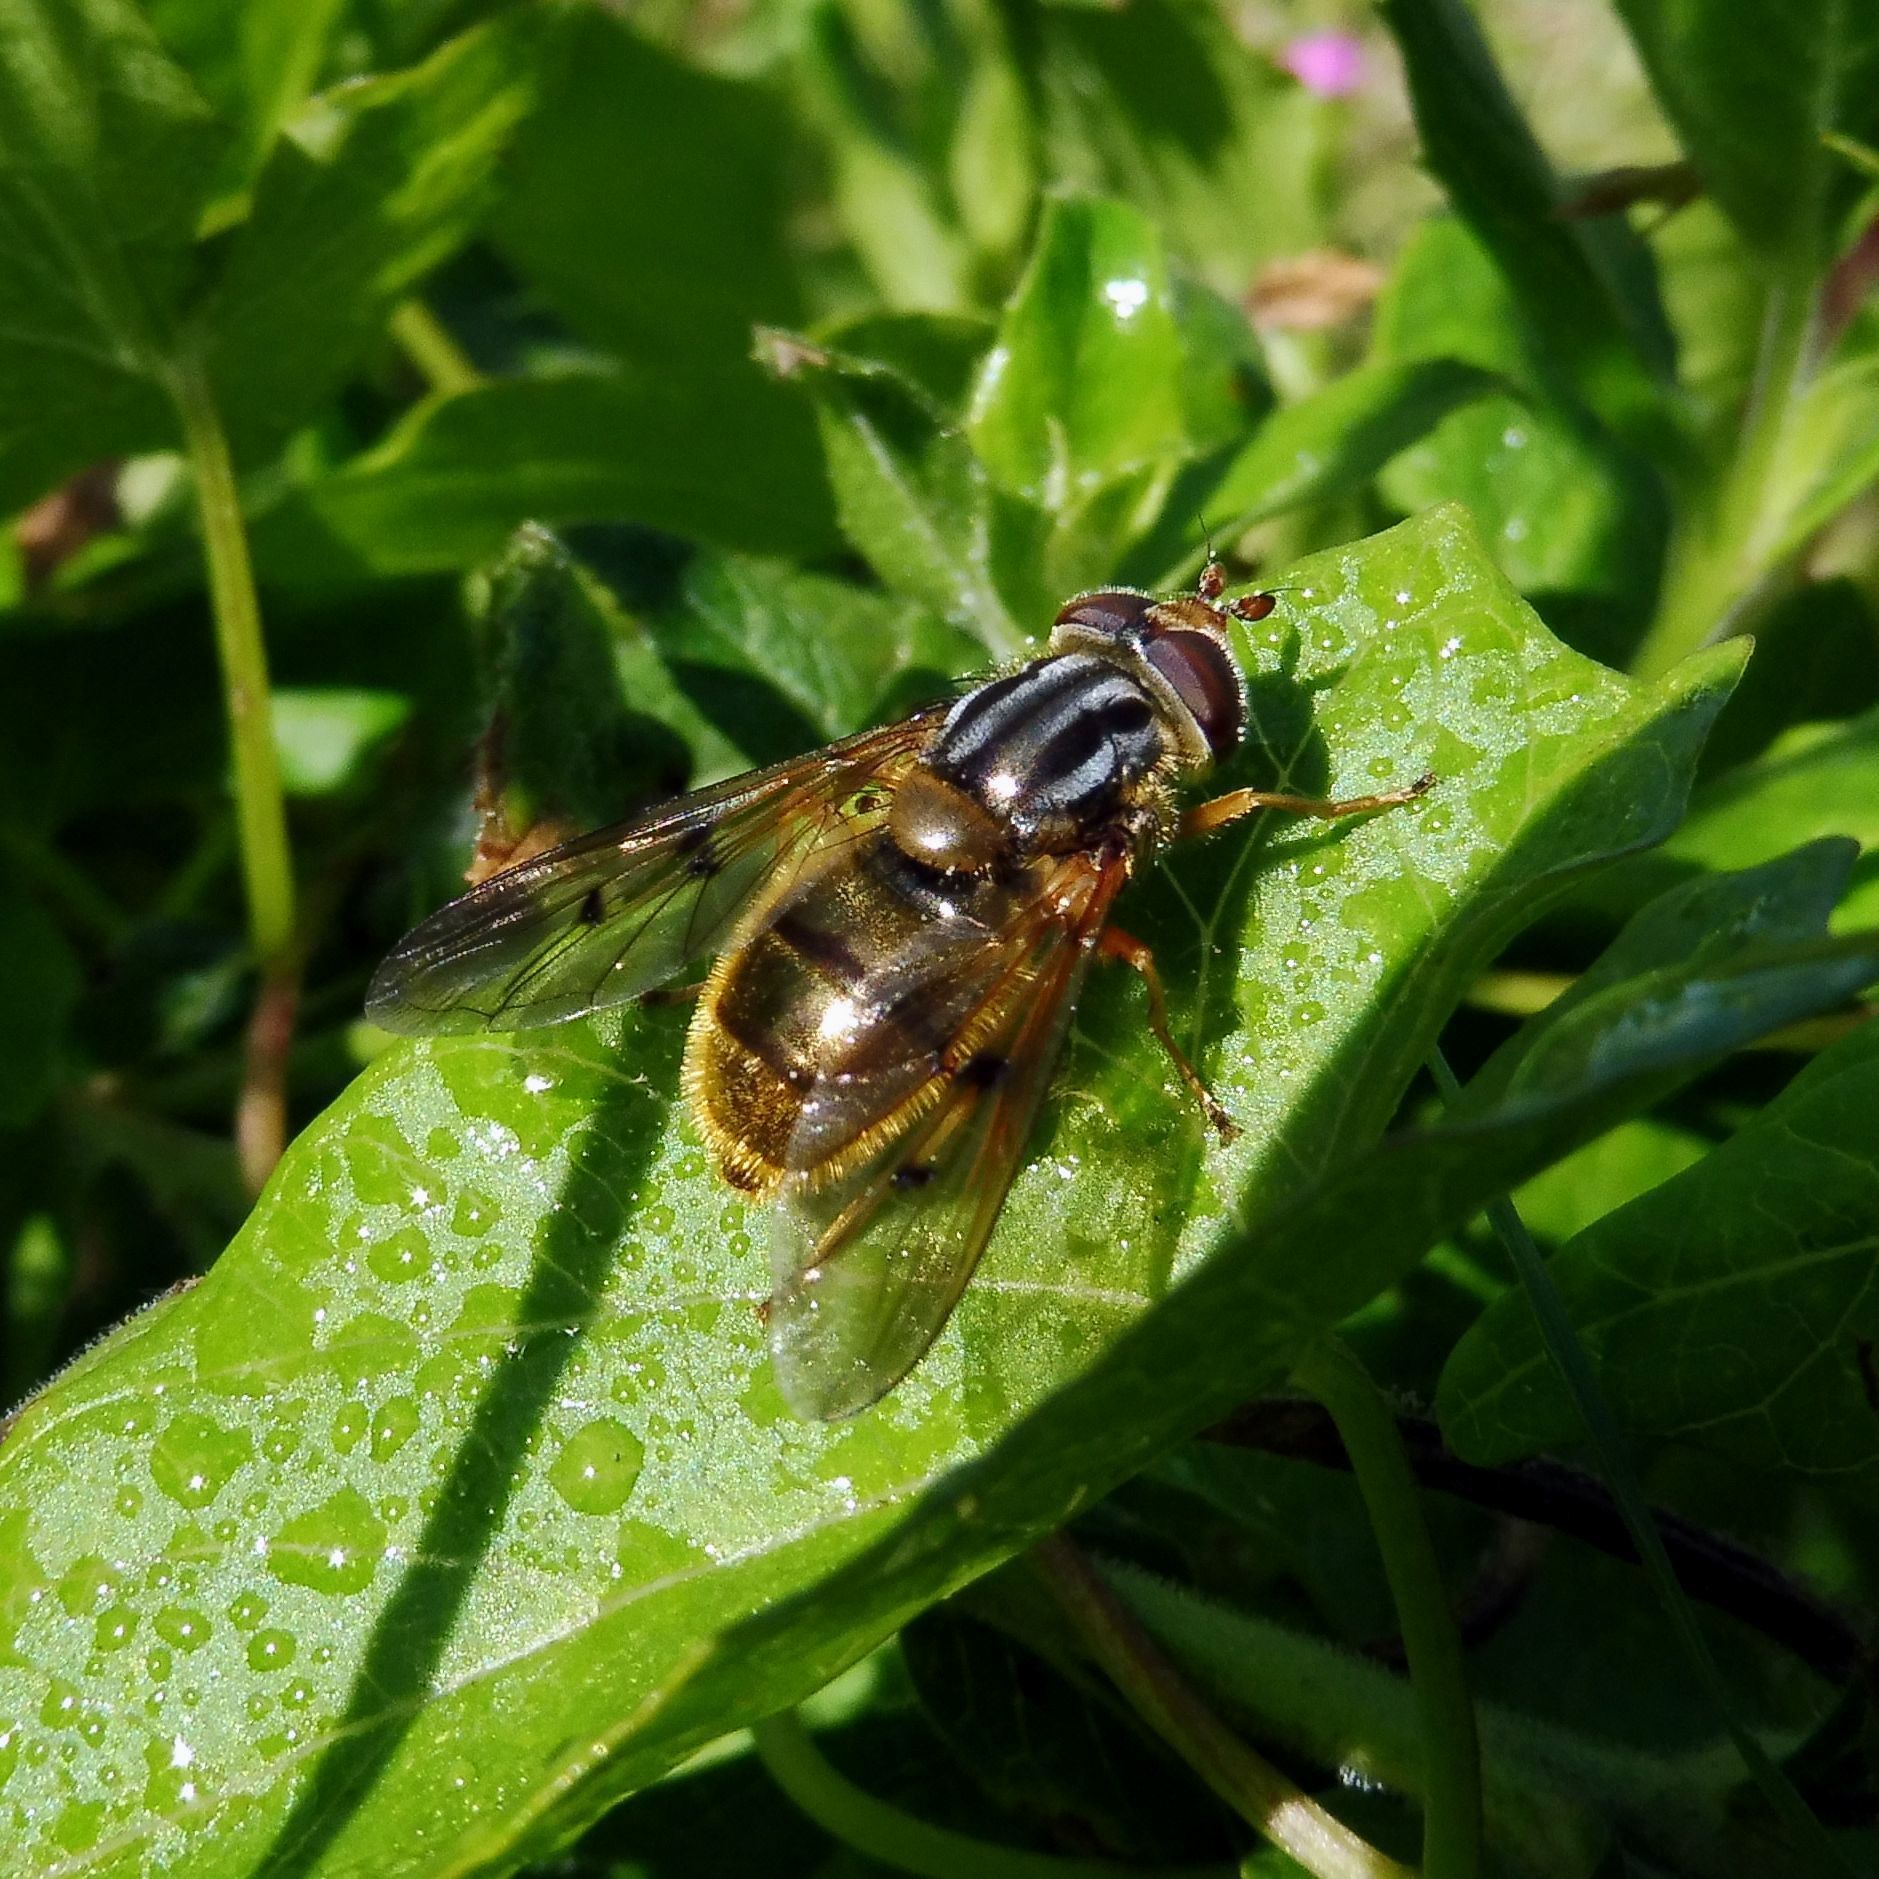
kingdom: Animalia
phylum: Arthropoda
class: Insecta
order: Diptera
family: Syrphidae
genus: Ferdinandea
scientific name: Ferdinandea cuprea
